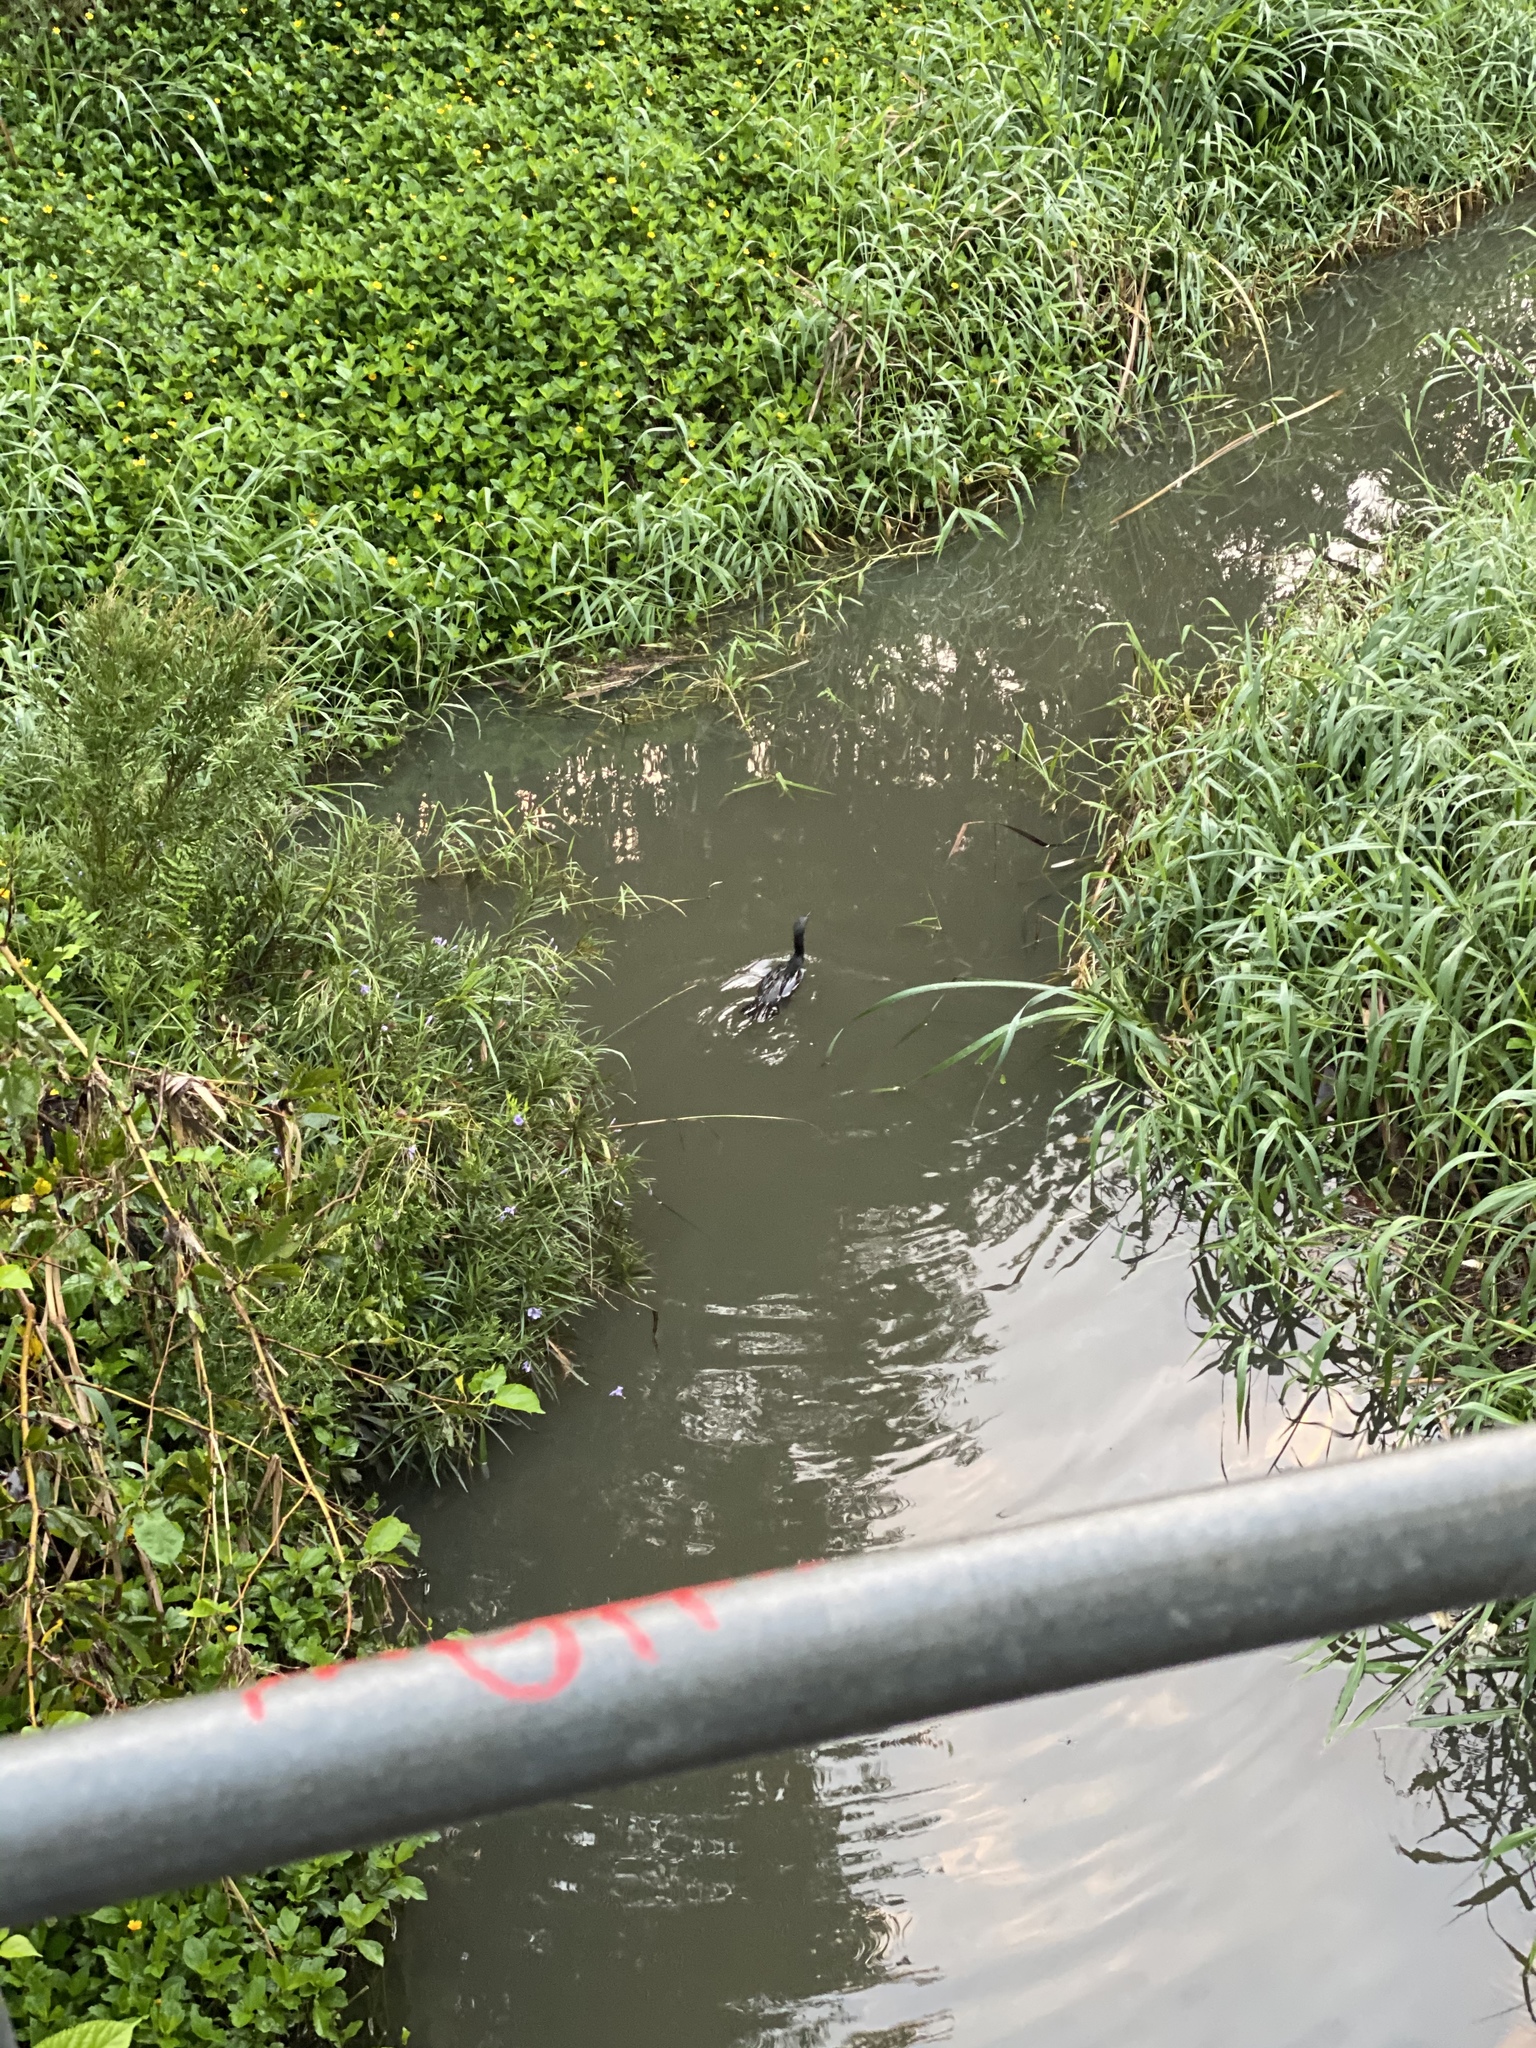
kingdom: Animalia
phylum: Chordata
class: Aves
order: Suliformes
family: Phalacrocoracidae
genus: Phalacrocorax
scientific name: Phalacrocorax sulcirostris
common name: Little black cormorant
